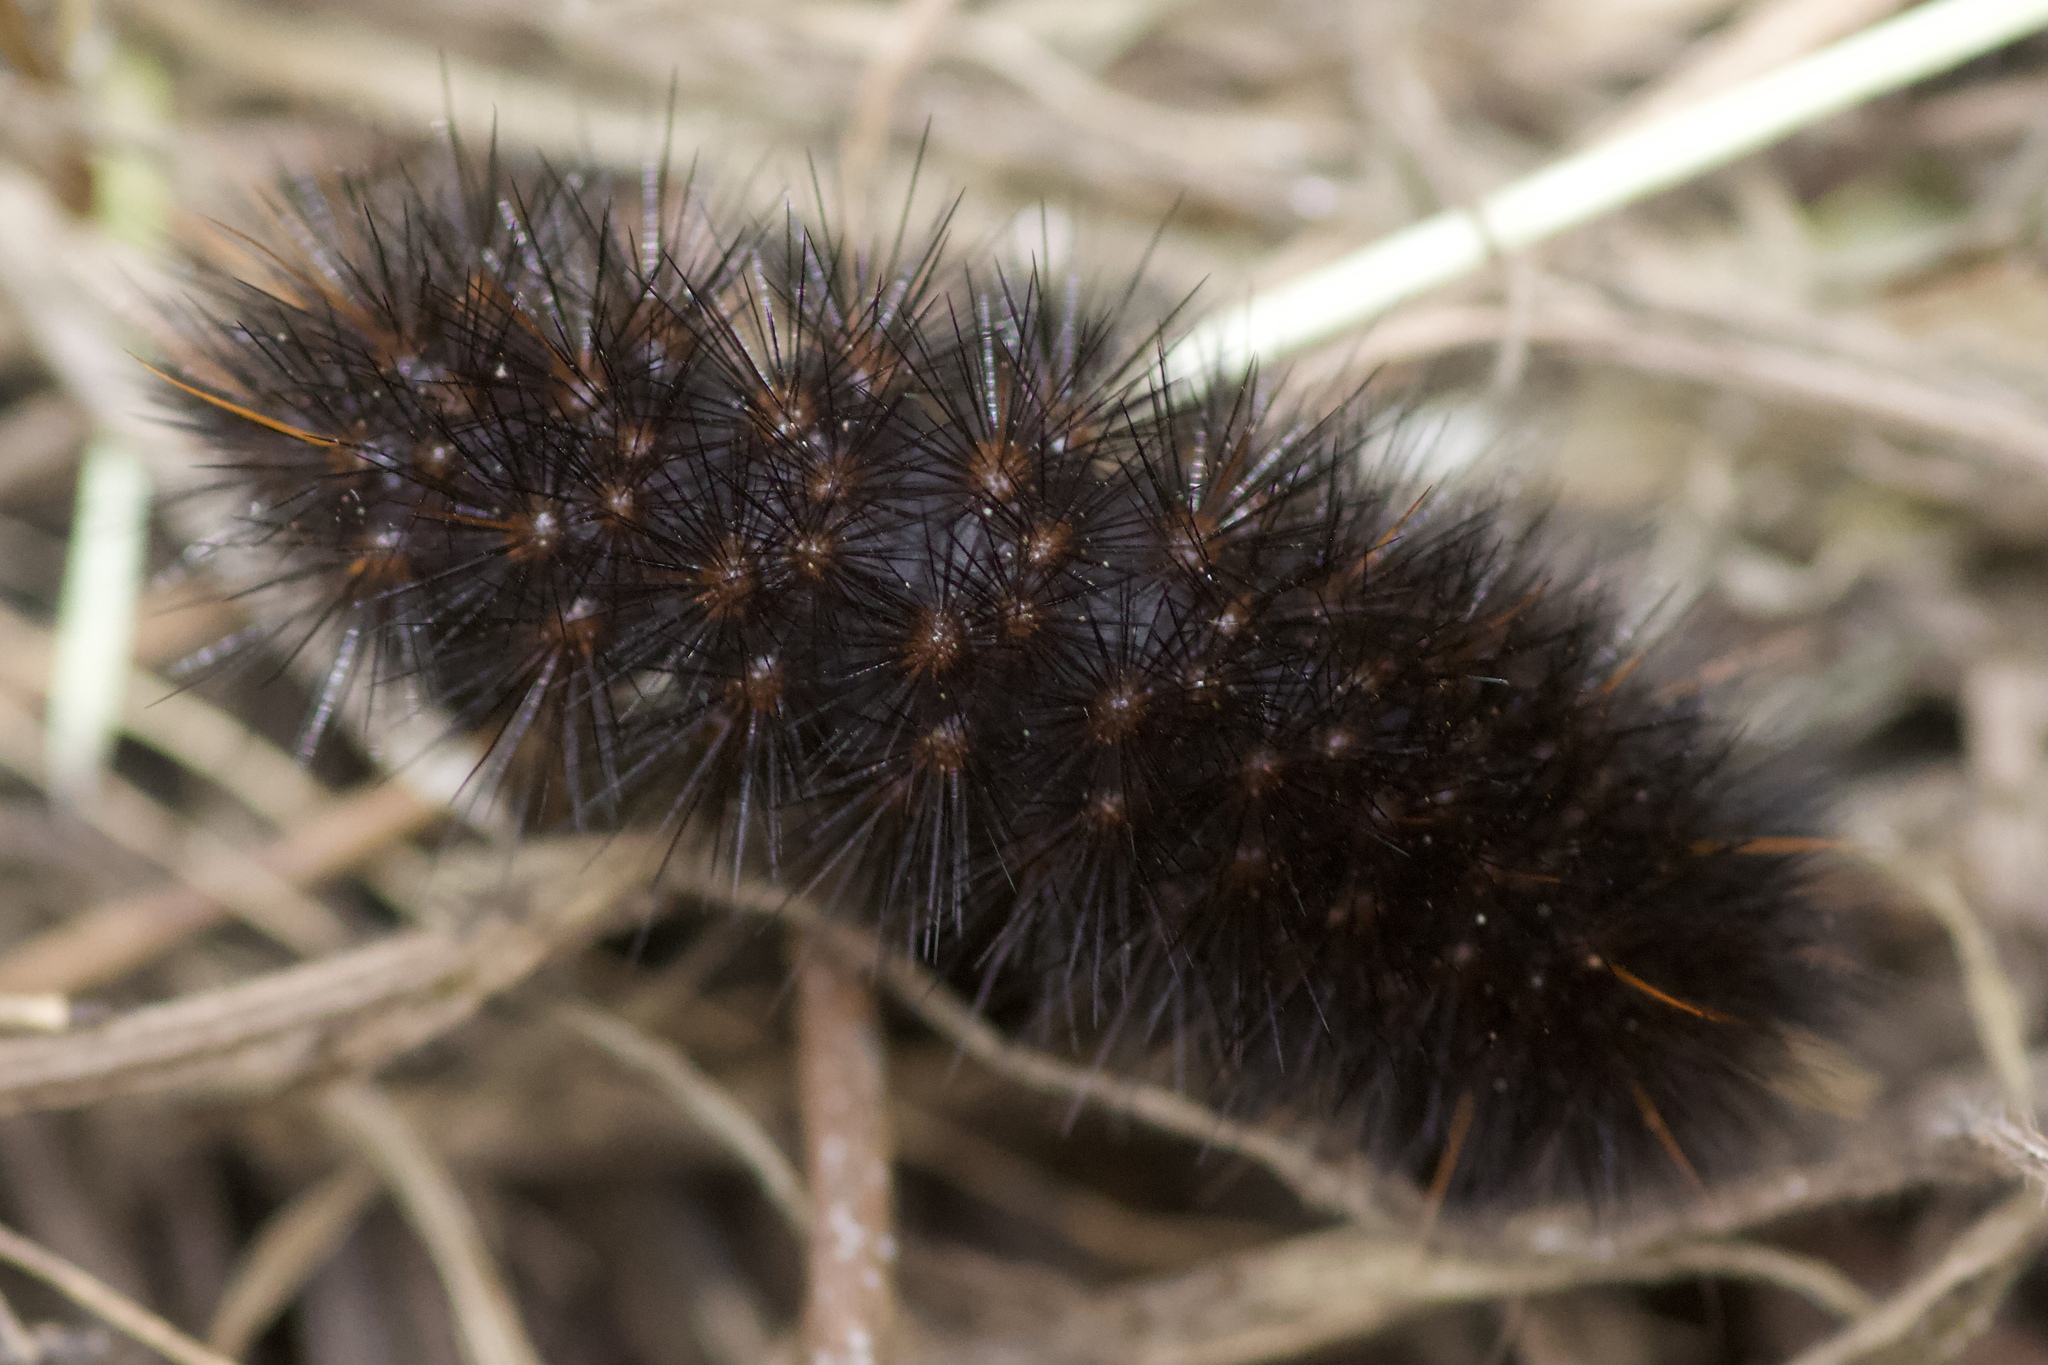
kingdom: Animalia
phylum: Arthropoda
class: Insecta
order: Lepidoptera
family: Erebidae
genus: Arachnis
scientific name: Arachnis picta
